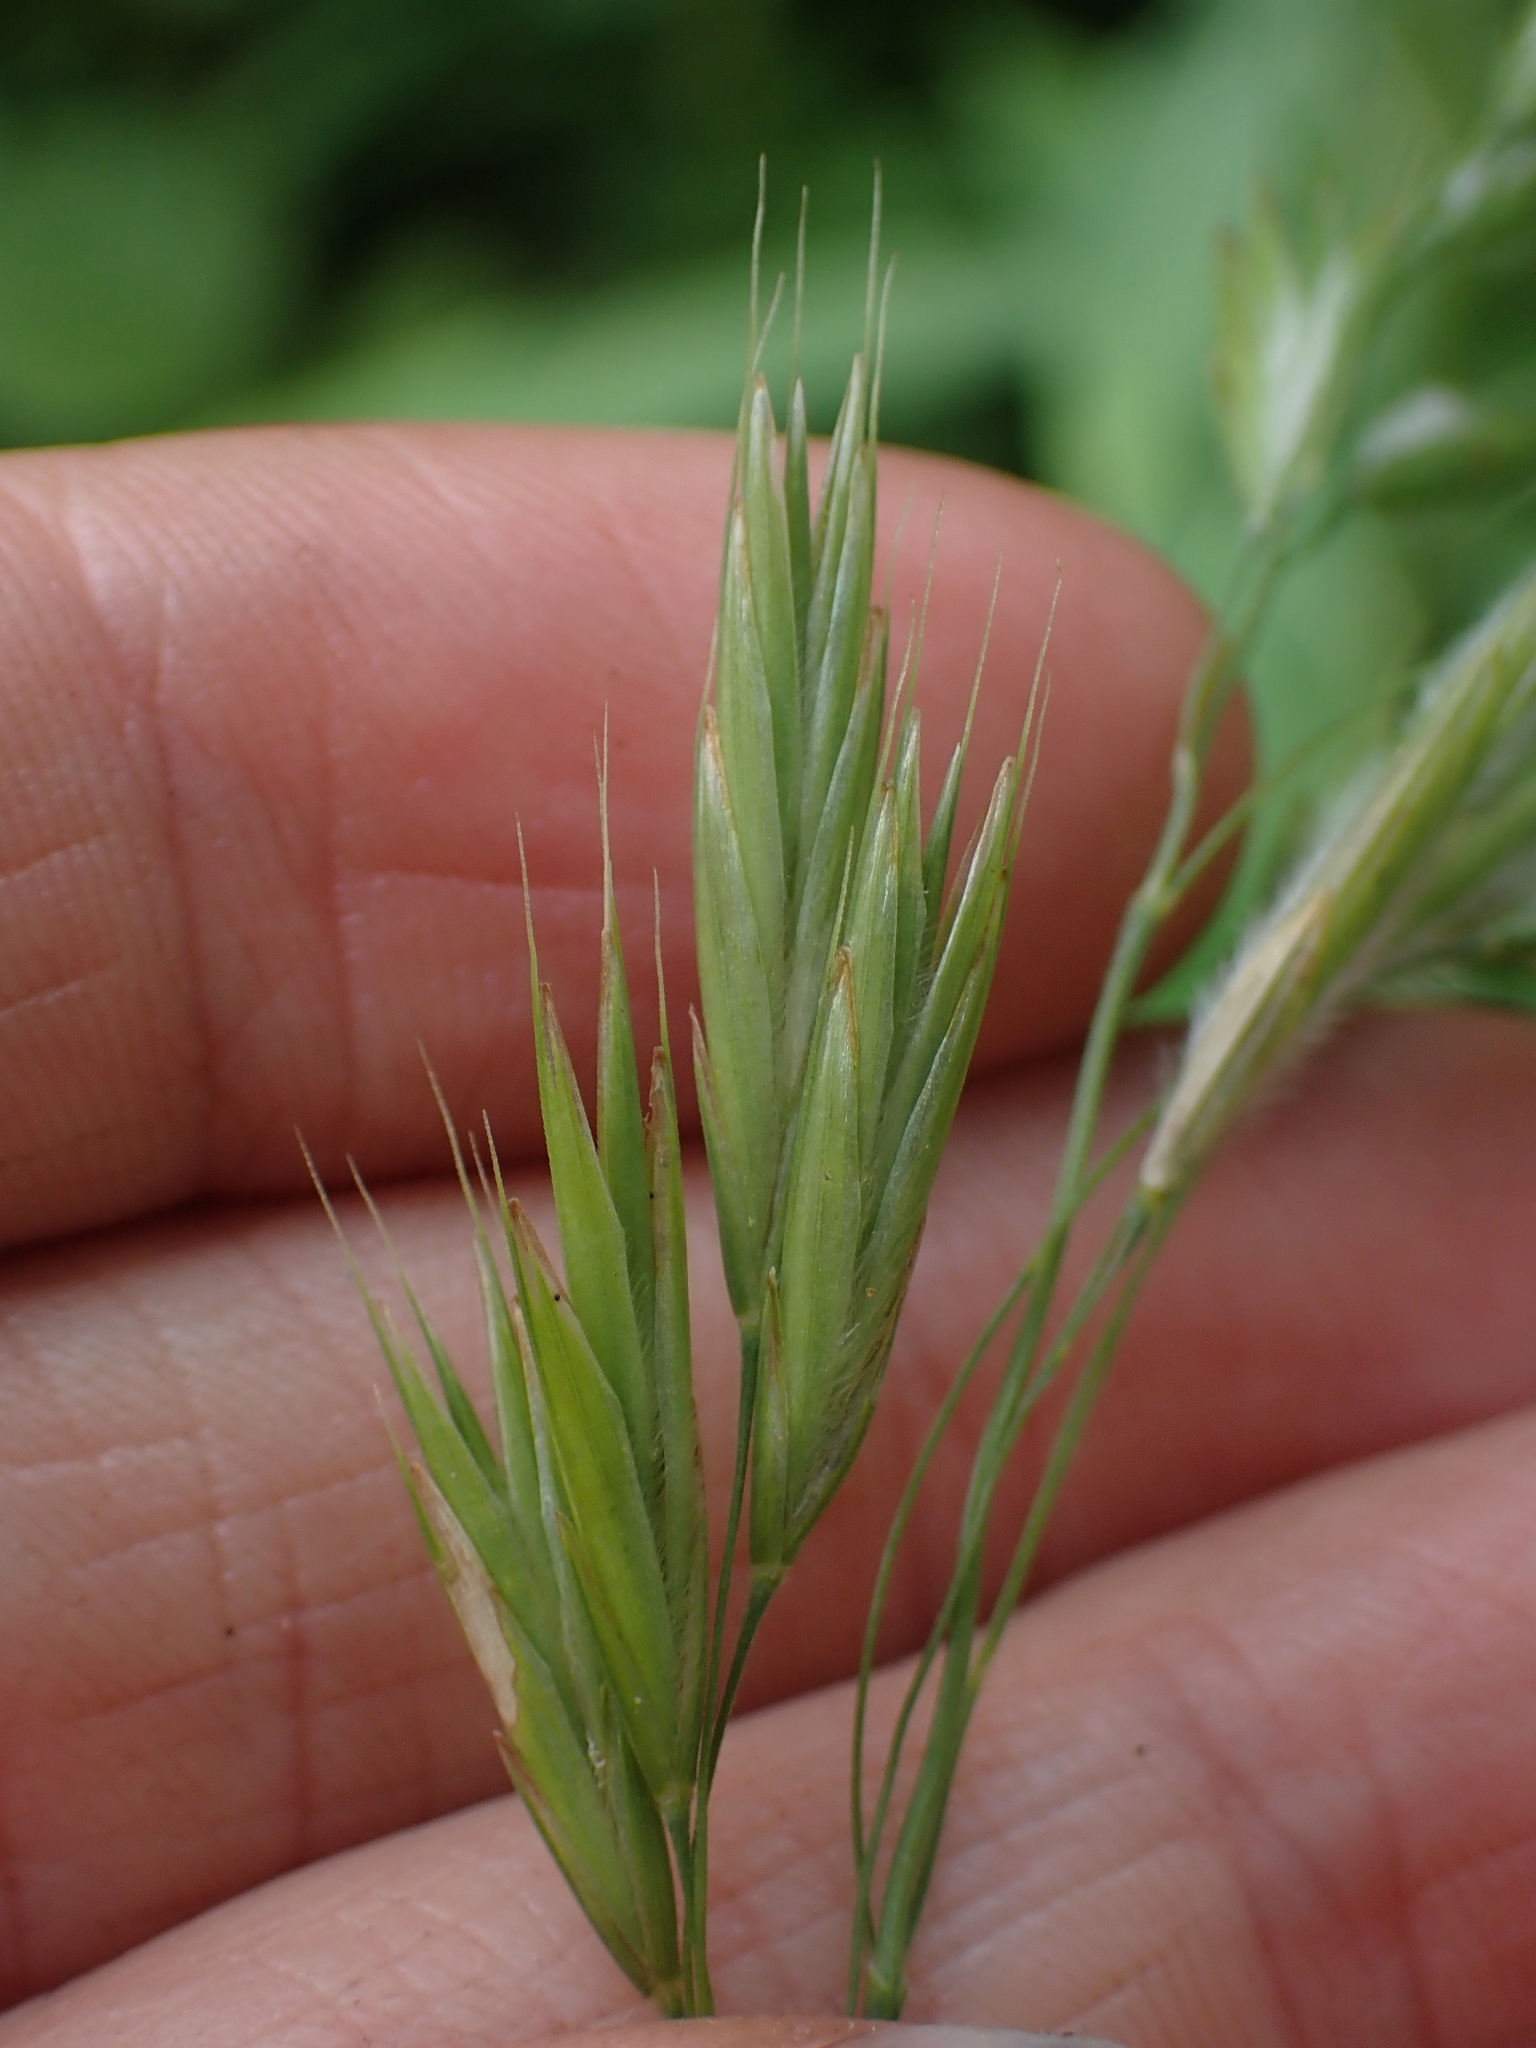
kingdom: Plantae
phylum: Tracheophyta
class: Liliopsida
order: Poales
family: Poaceae
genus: Bromus
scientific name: Bromus ciliatus
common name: Fringe brome
